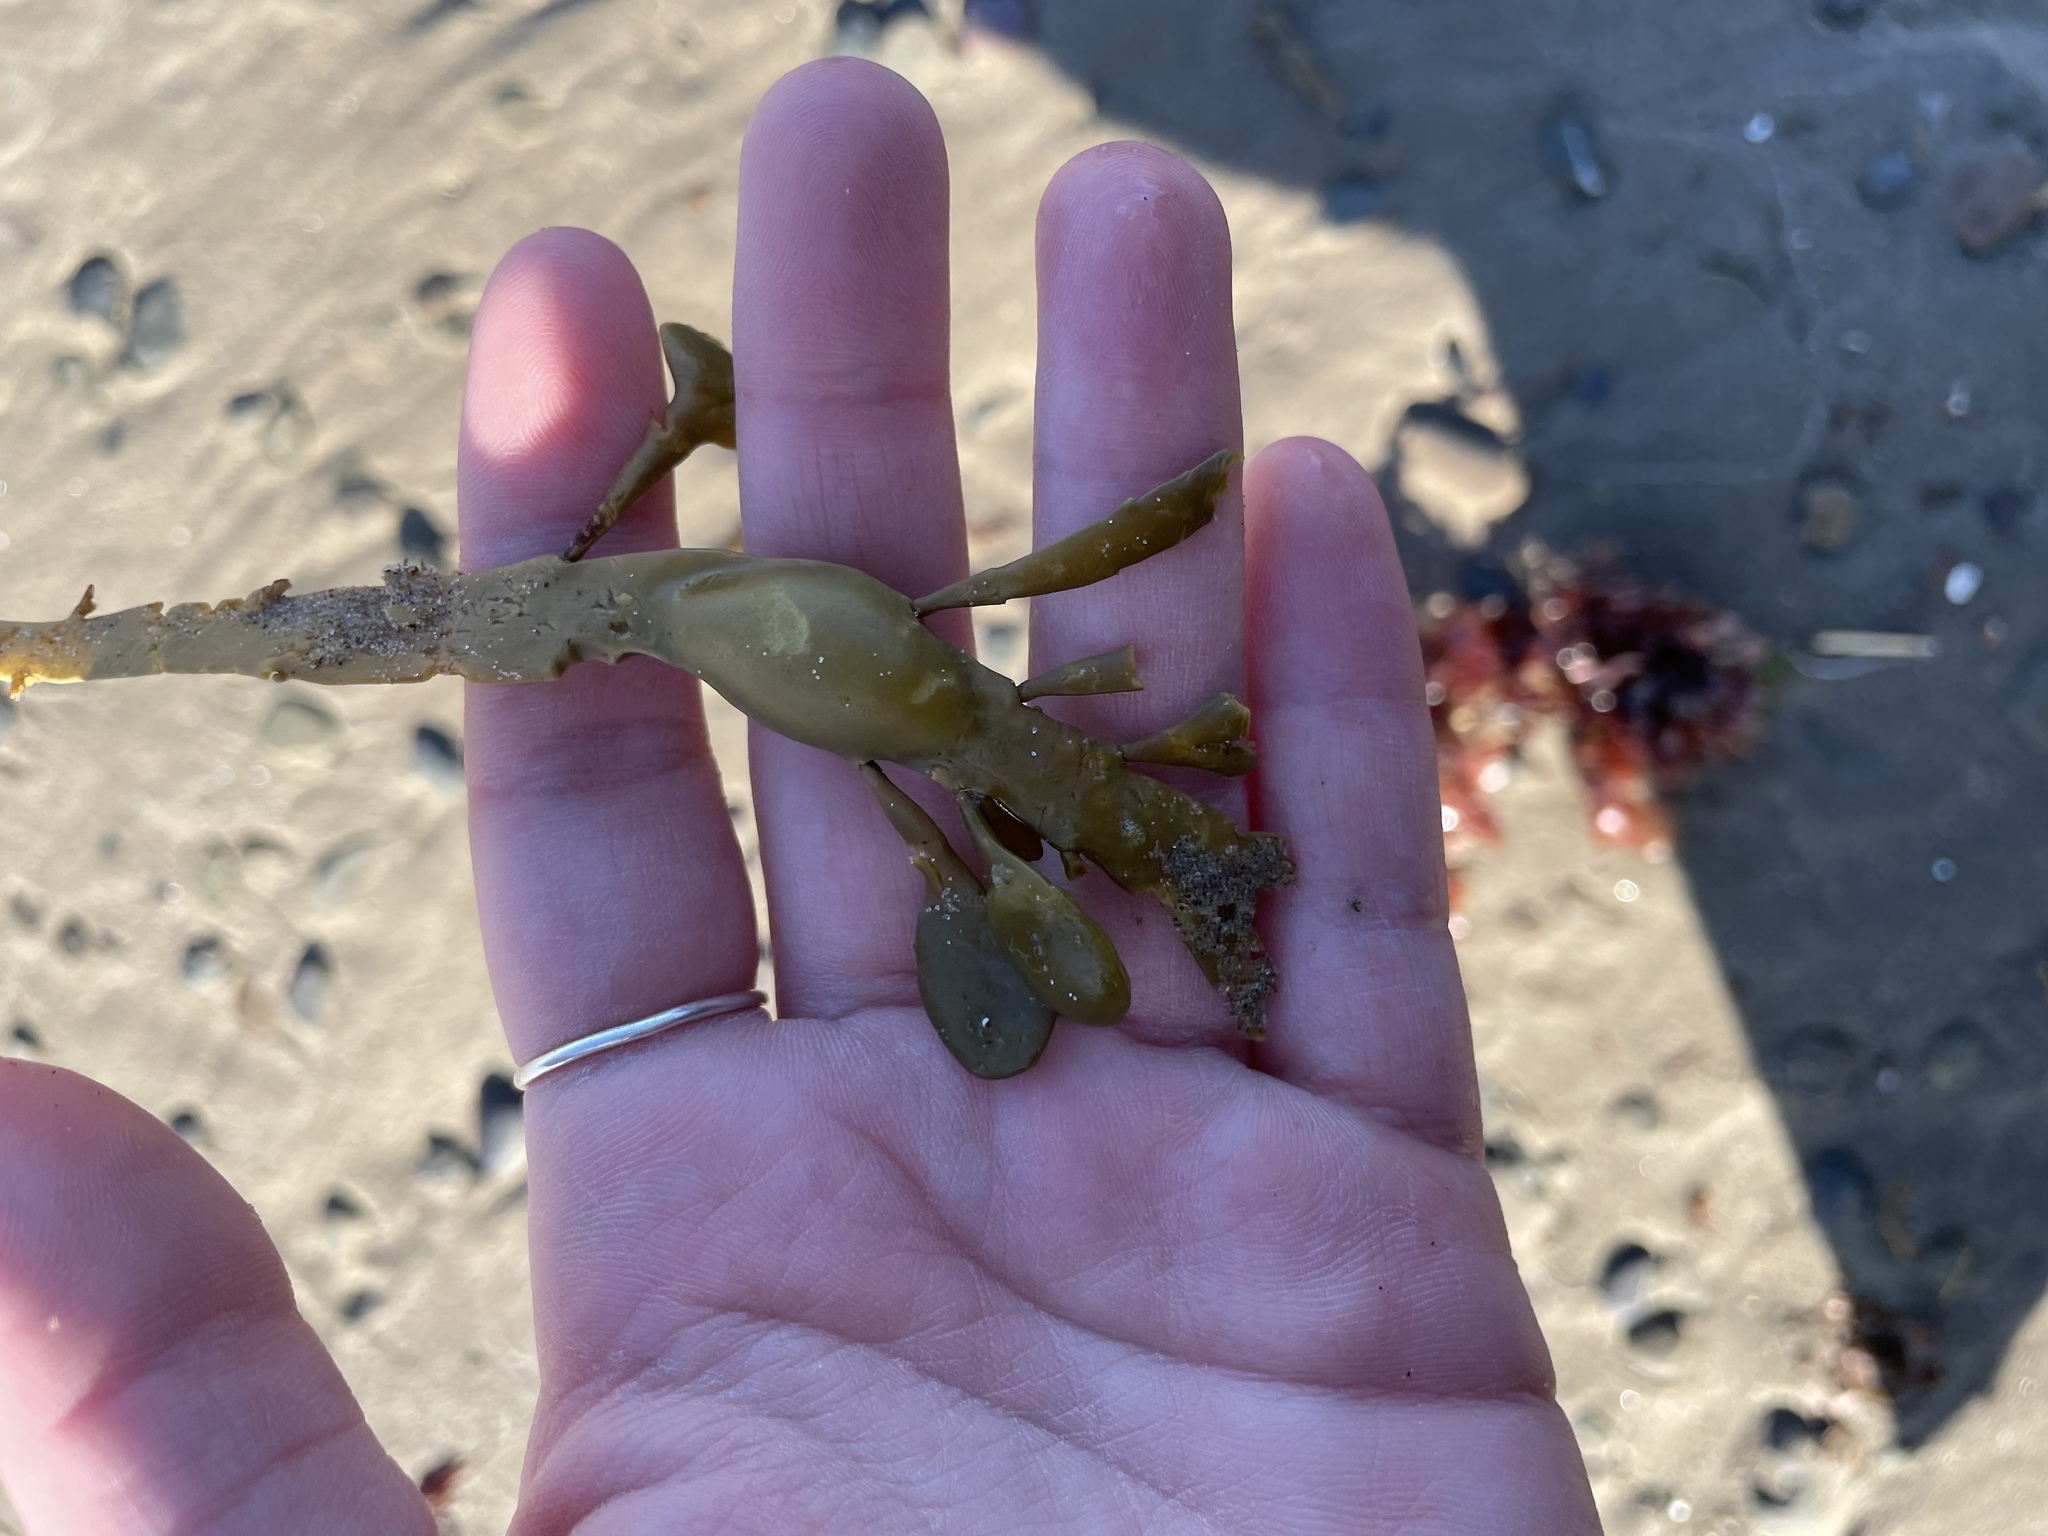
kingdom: Chromista
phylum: Ochrophyta
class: Phaeophyceae
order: Fucales
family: Fucaceae
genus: Ascophyllum
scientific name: Ascophyllum nodosum
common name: Knotted wrack
